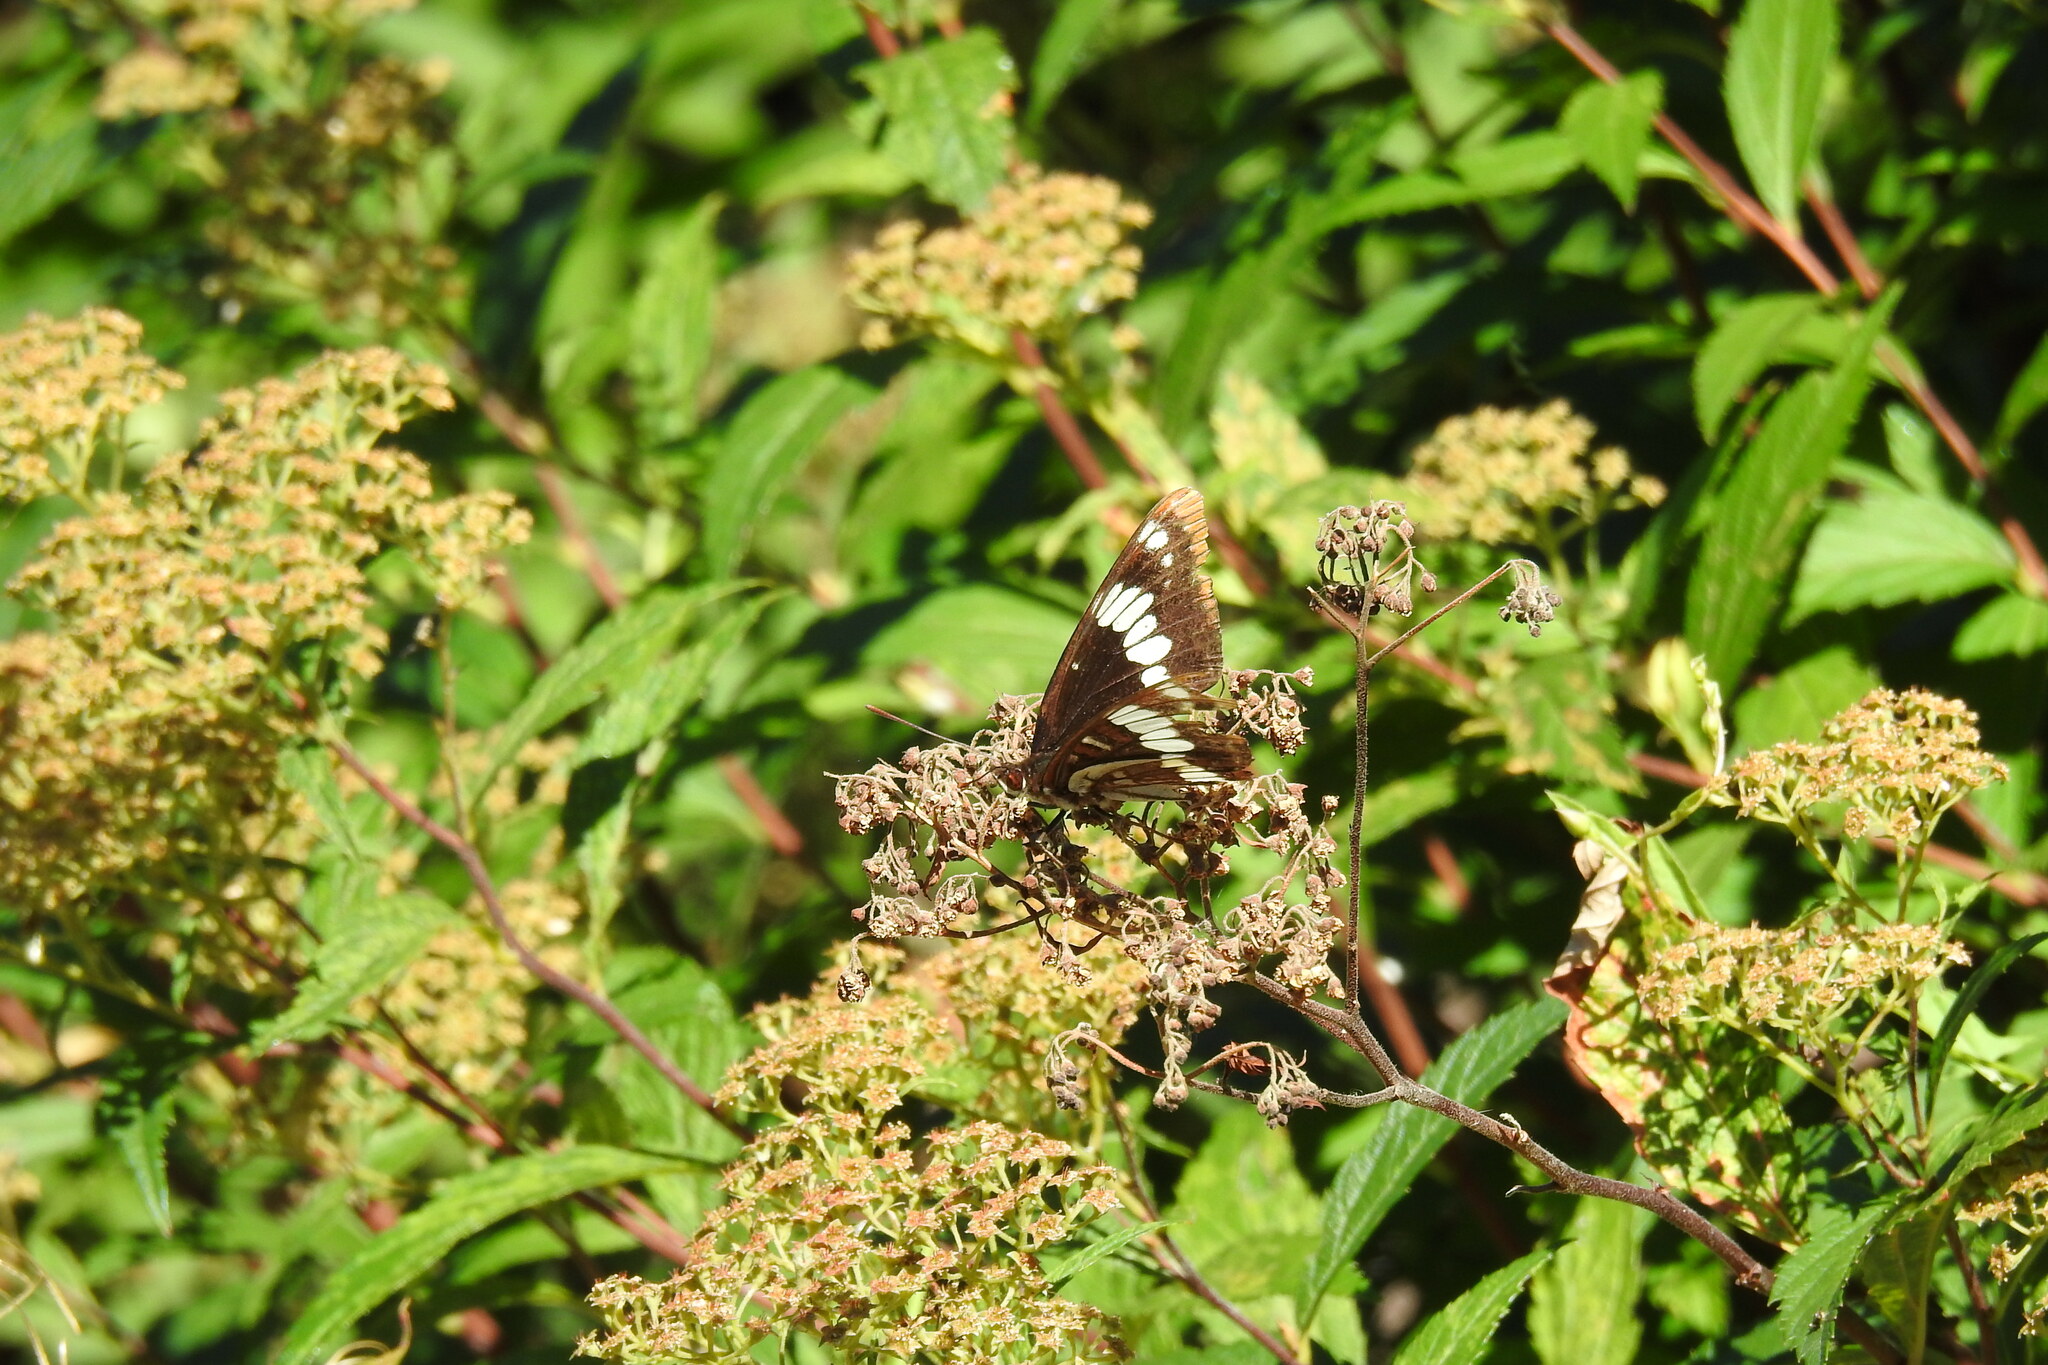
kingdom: Animalia
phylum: Arthropoda
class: Insecta
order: Lepidoptera
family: Nymphalidae
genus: Limenitis
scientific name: Limenitis lorquini
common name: Lorquin's admiral
